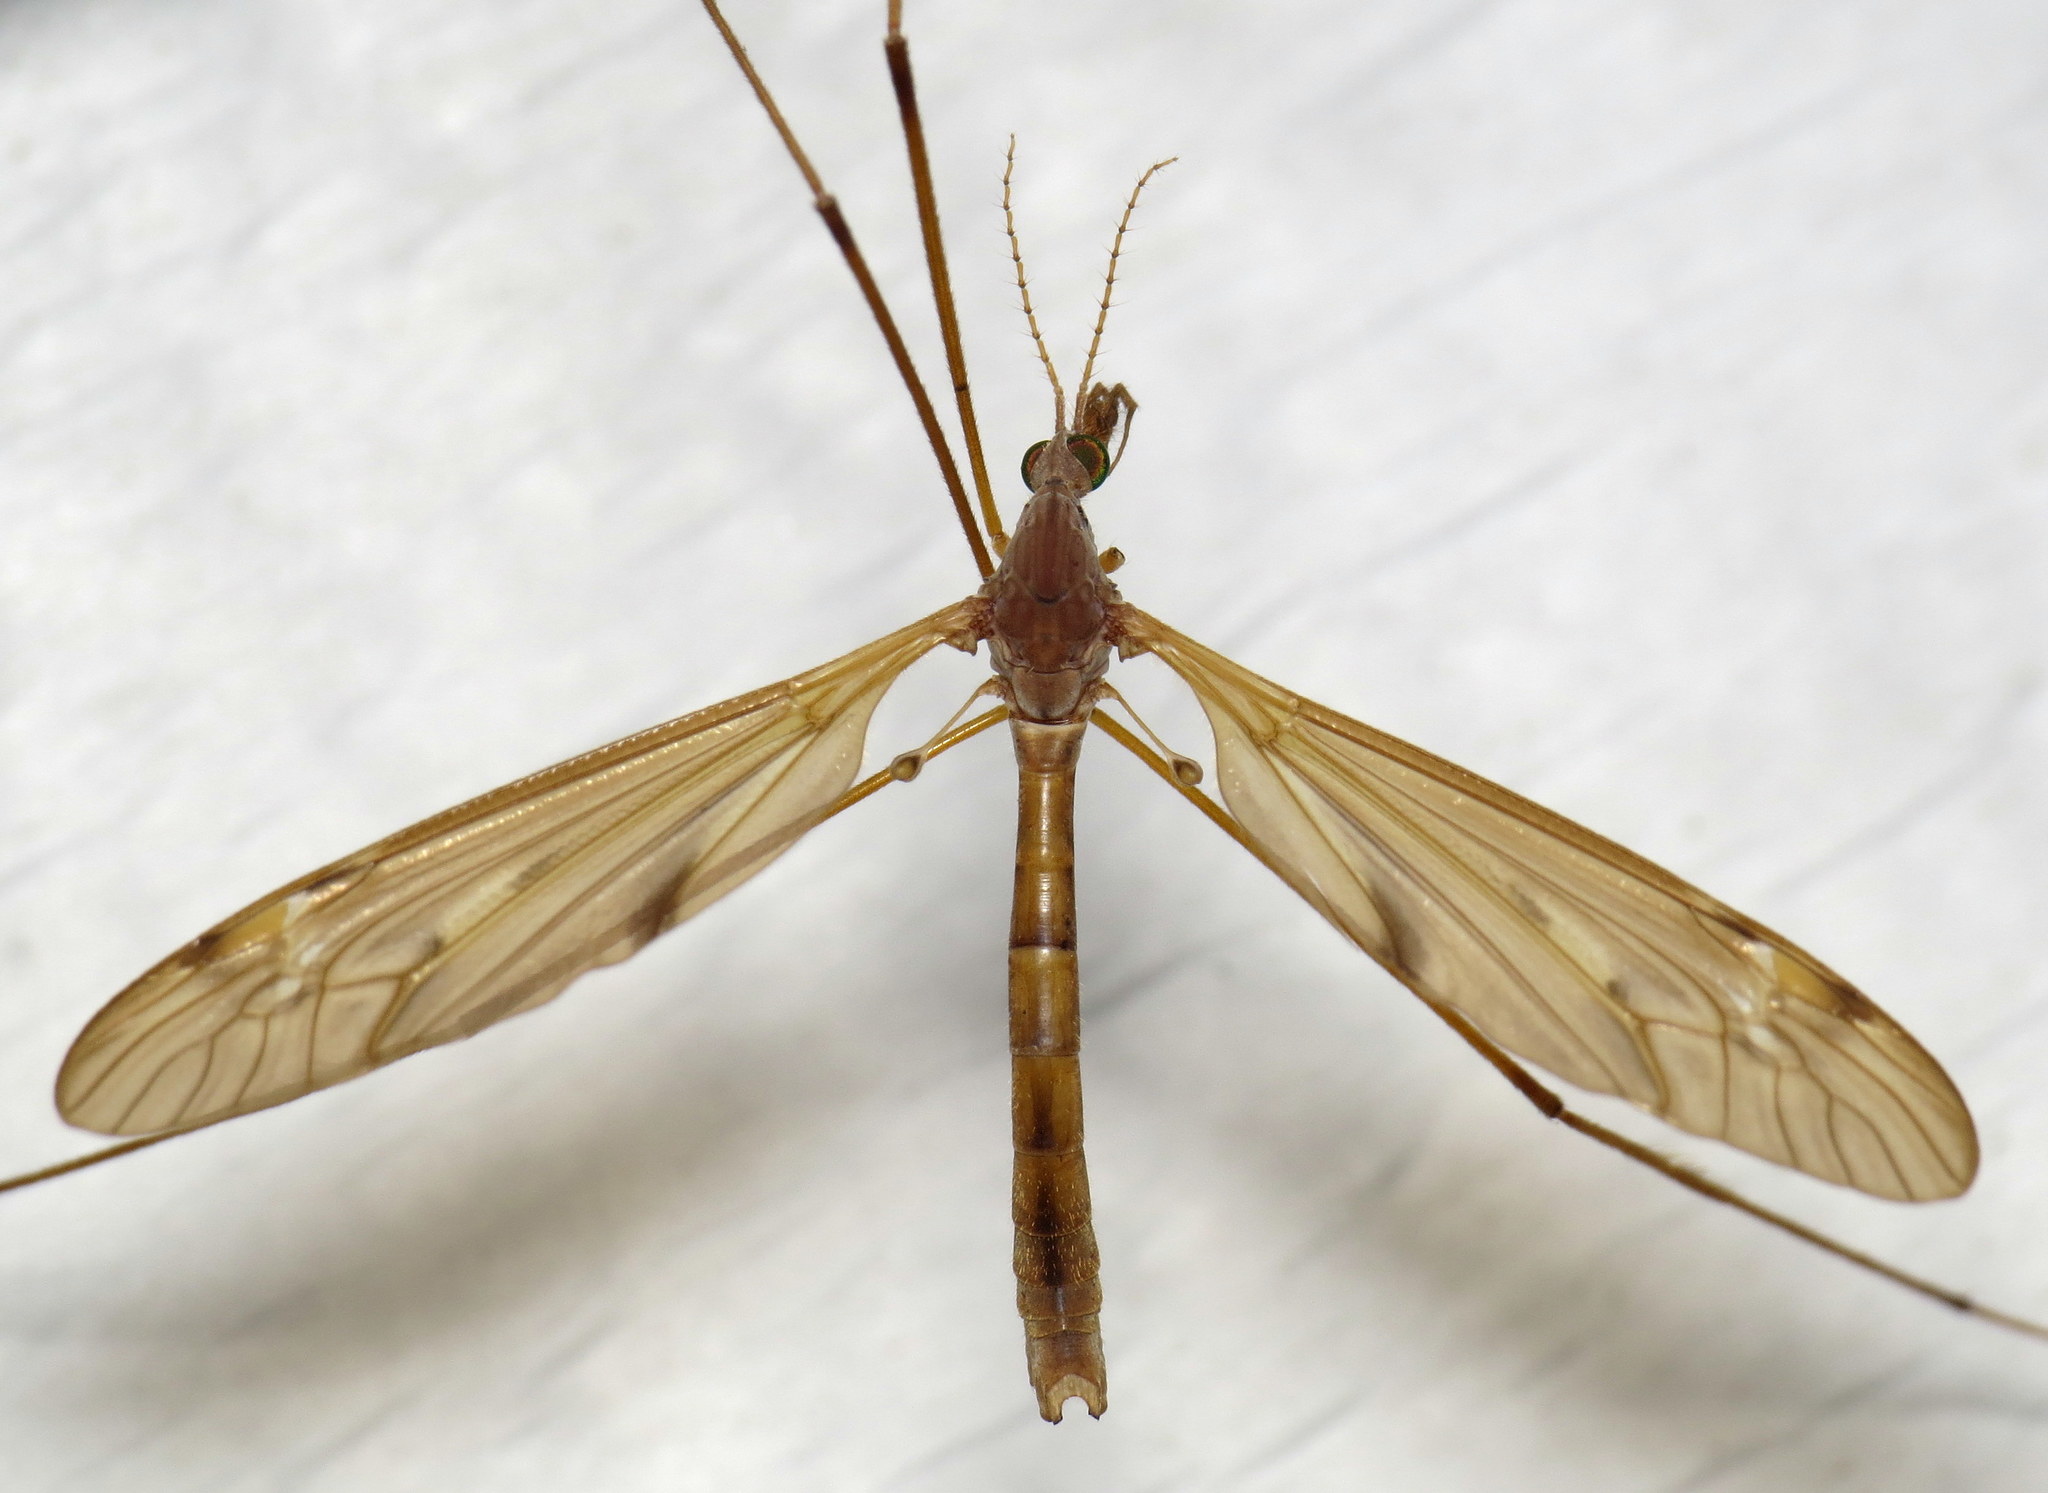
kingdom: Animalia
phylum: Arthropoda
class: Insecta
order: Diptera
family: Tipulidae
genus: Tipula
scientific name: Tipula ultima
